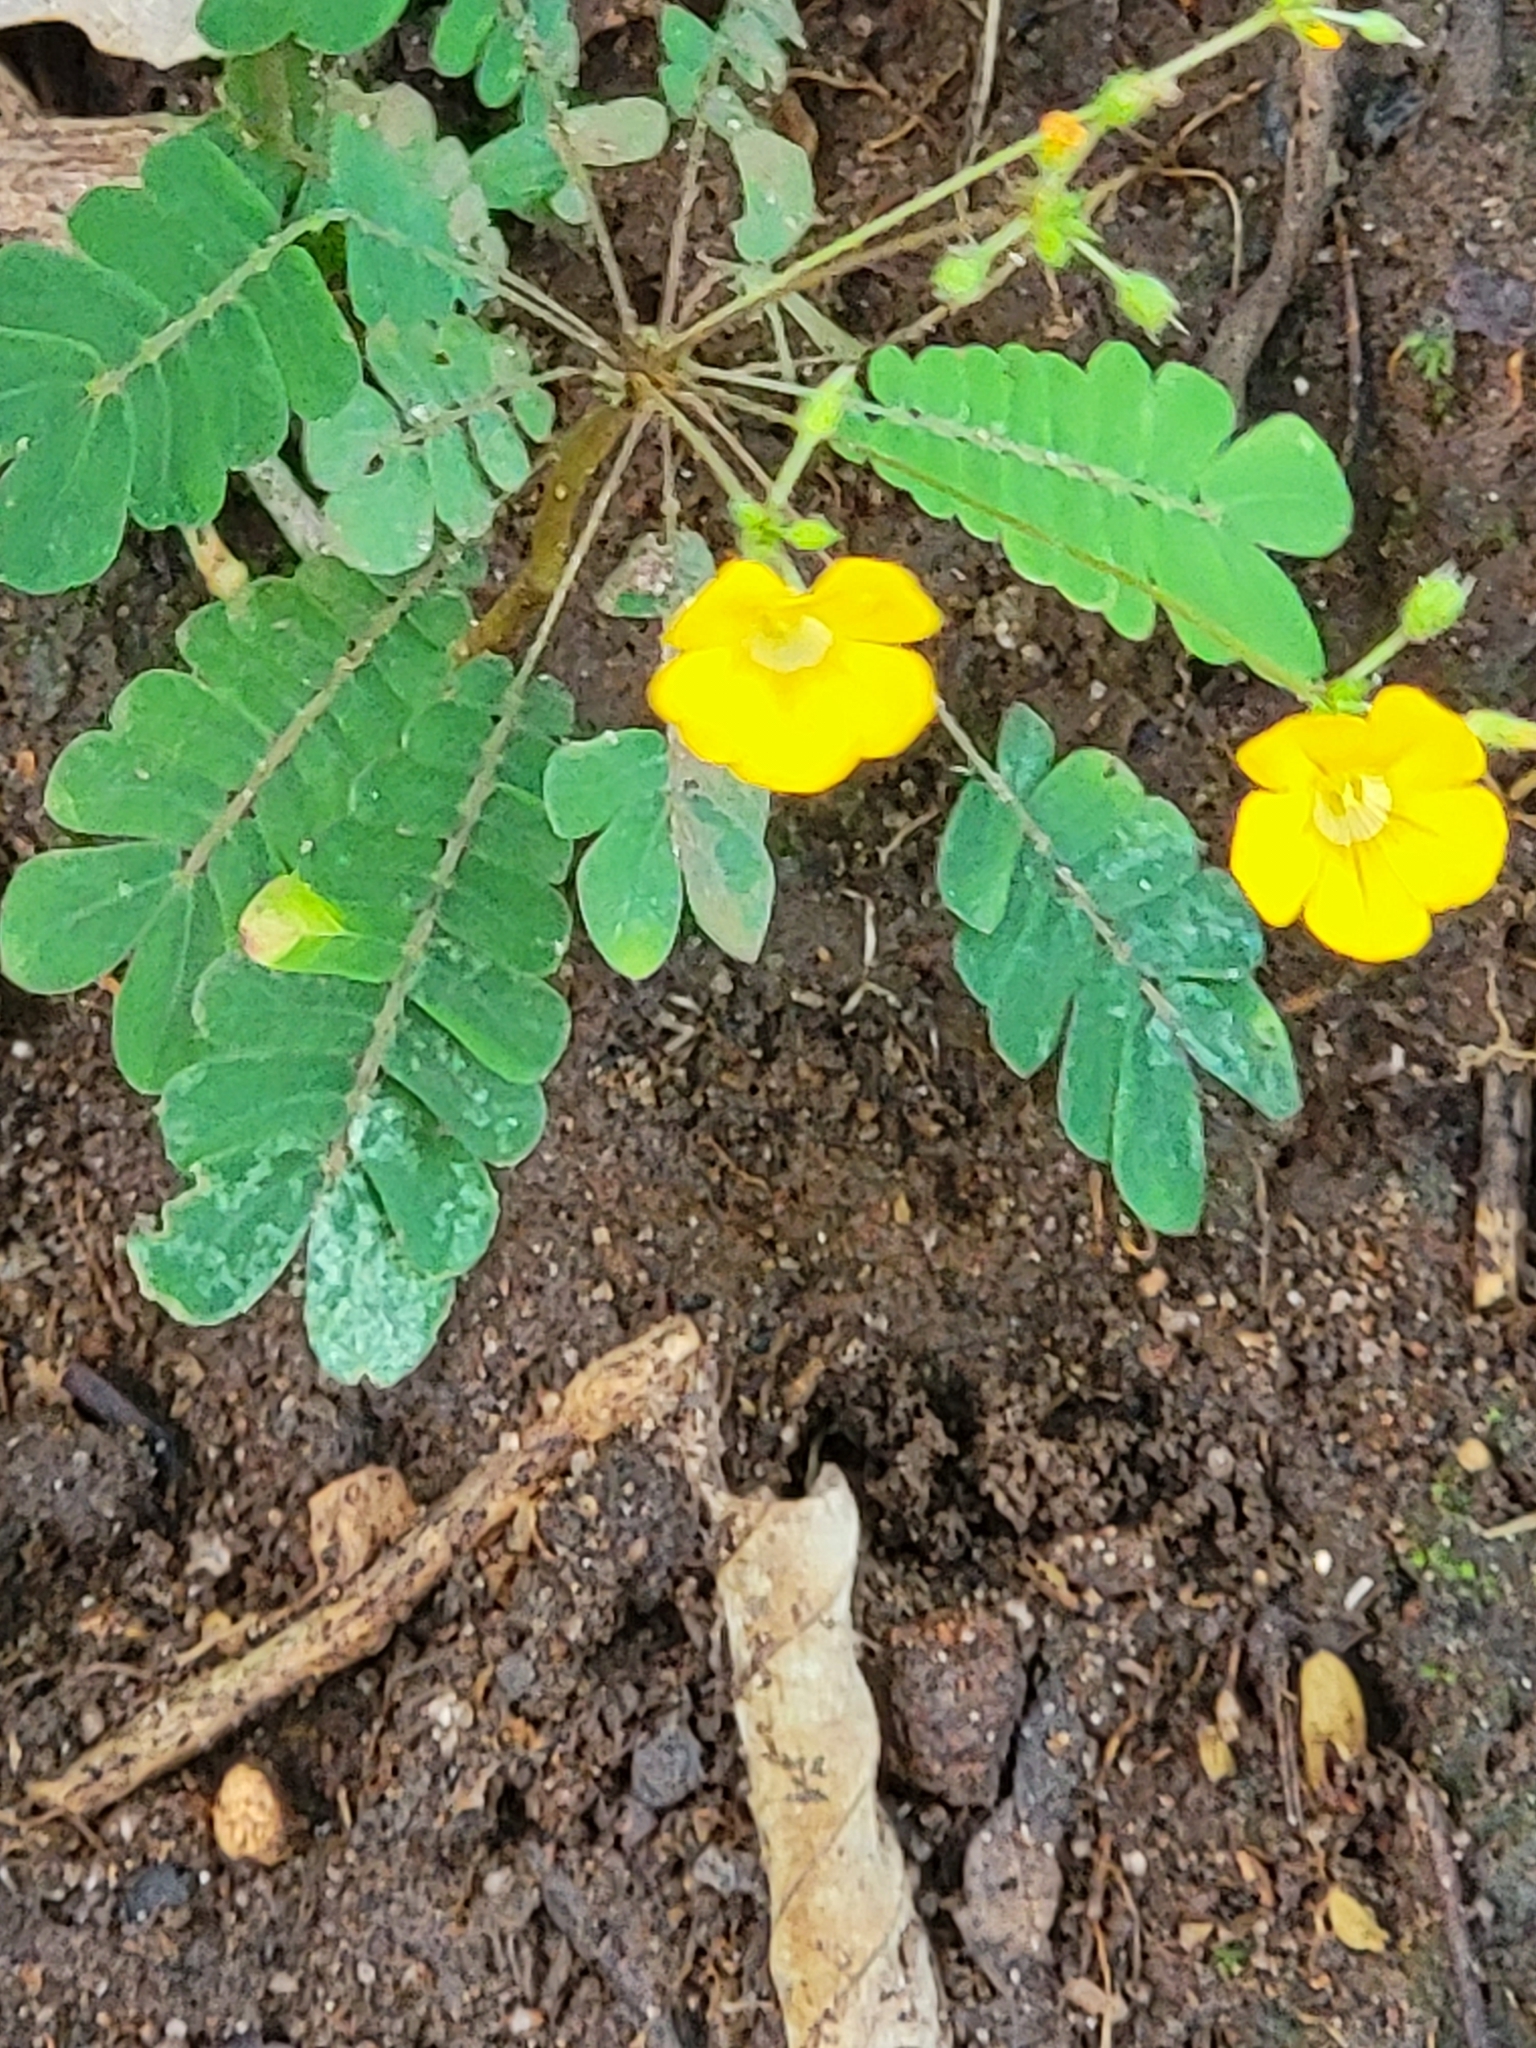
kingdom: Plantae
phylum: Tracheophyta
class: Magnoliopsida
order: Oxalidales
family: Oxalidaceae
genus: Biophytum
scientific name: Biophytum sensitivum
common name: Lifeplant
